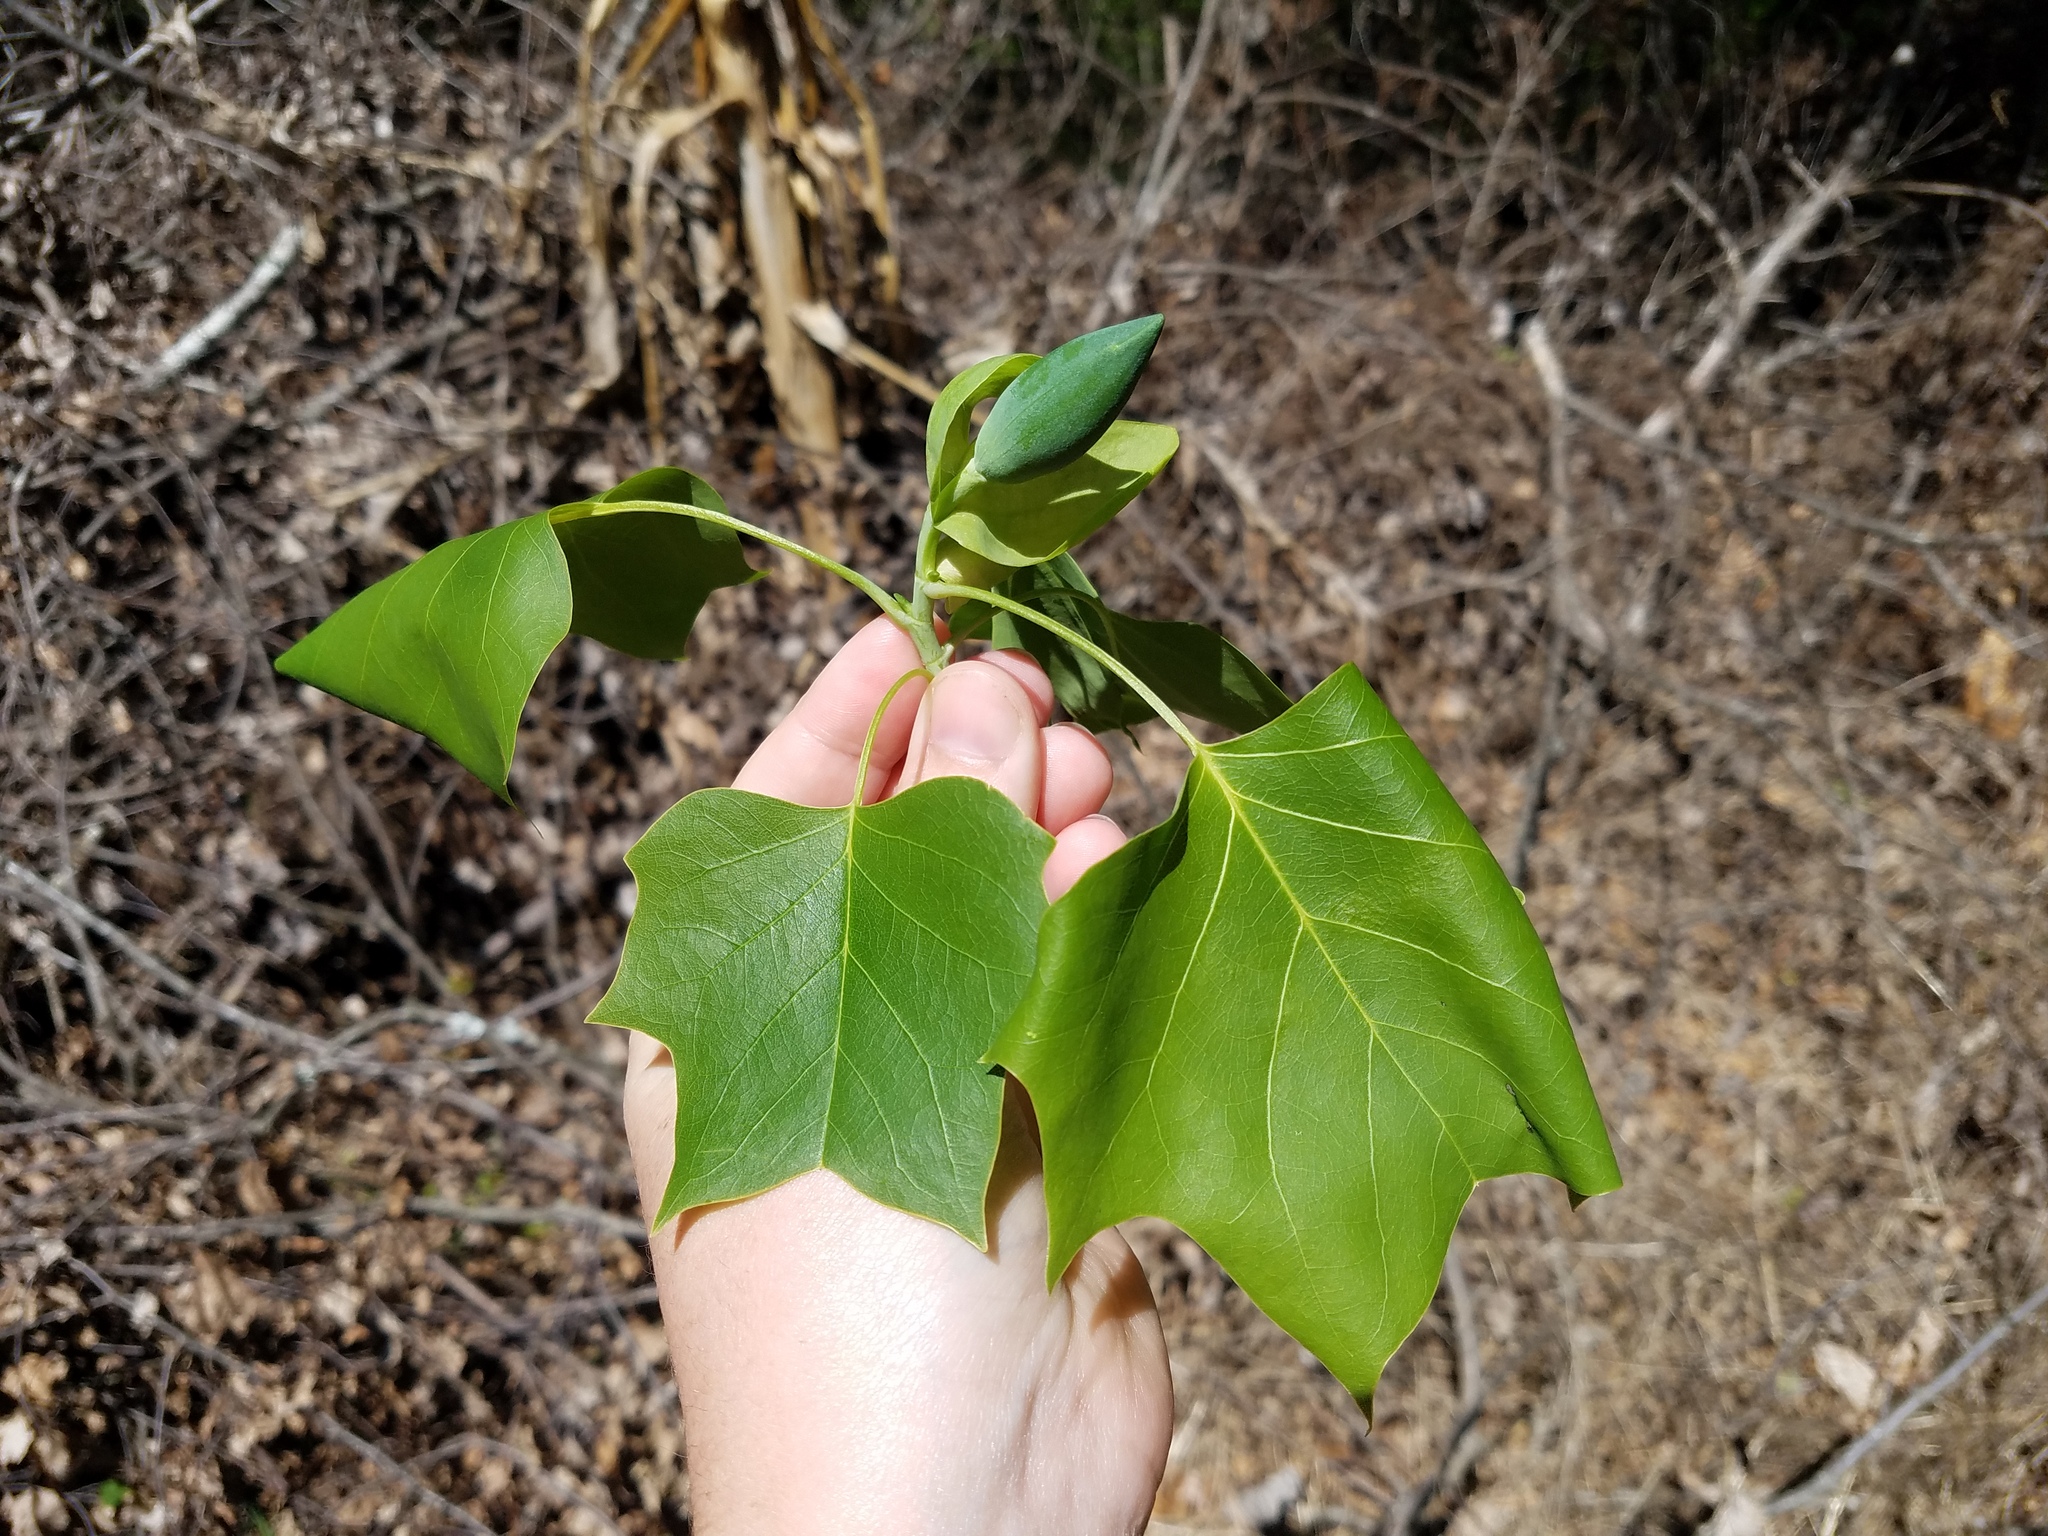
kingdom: Plantae
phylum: Tracheophyta
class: Magnoliopsida
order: Magnoliales
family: Magnoliaceae
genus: Liriodendron
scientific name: Liriodendron tulipifera
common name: Tulip tree
